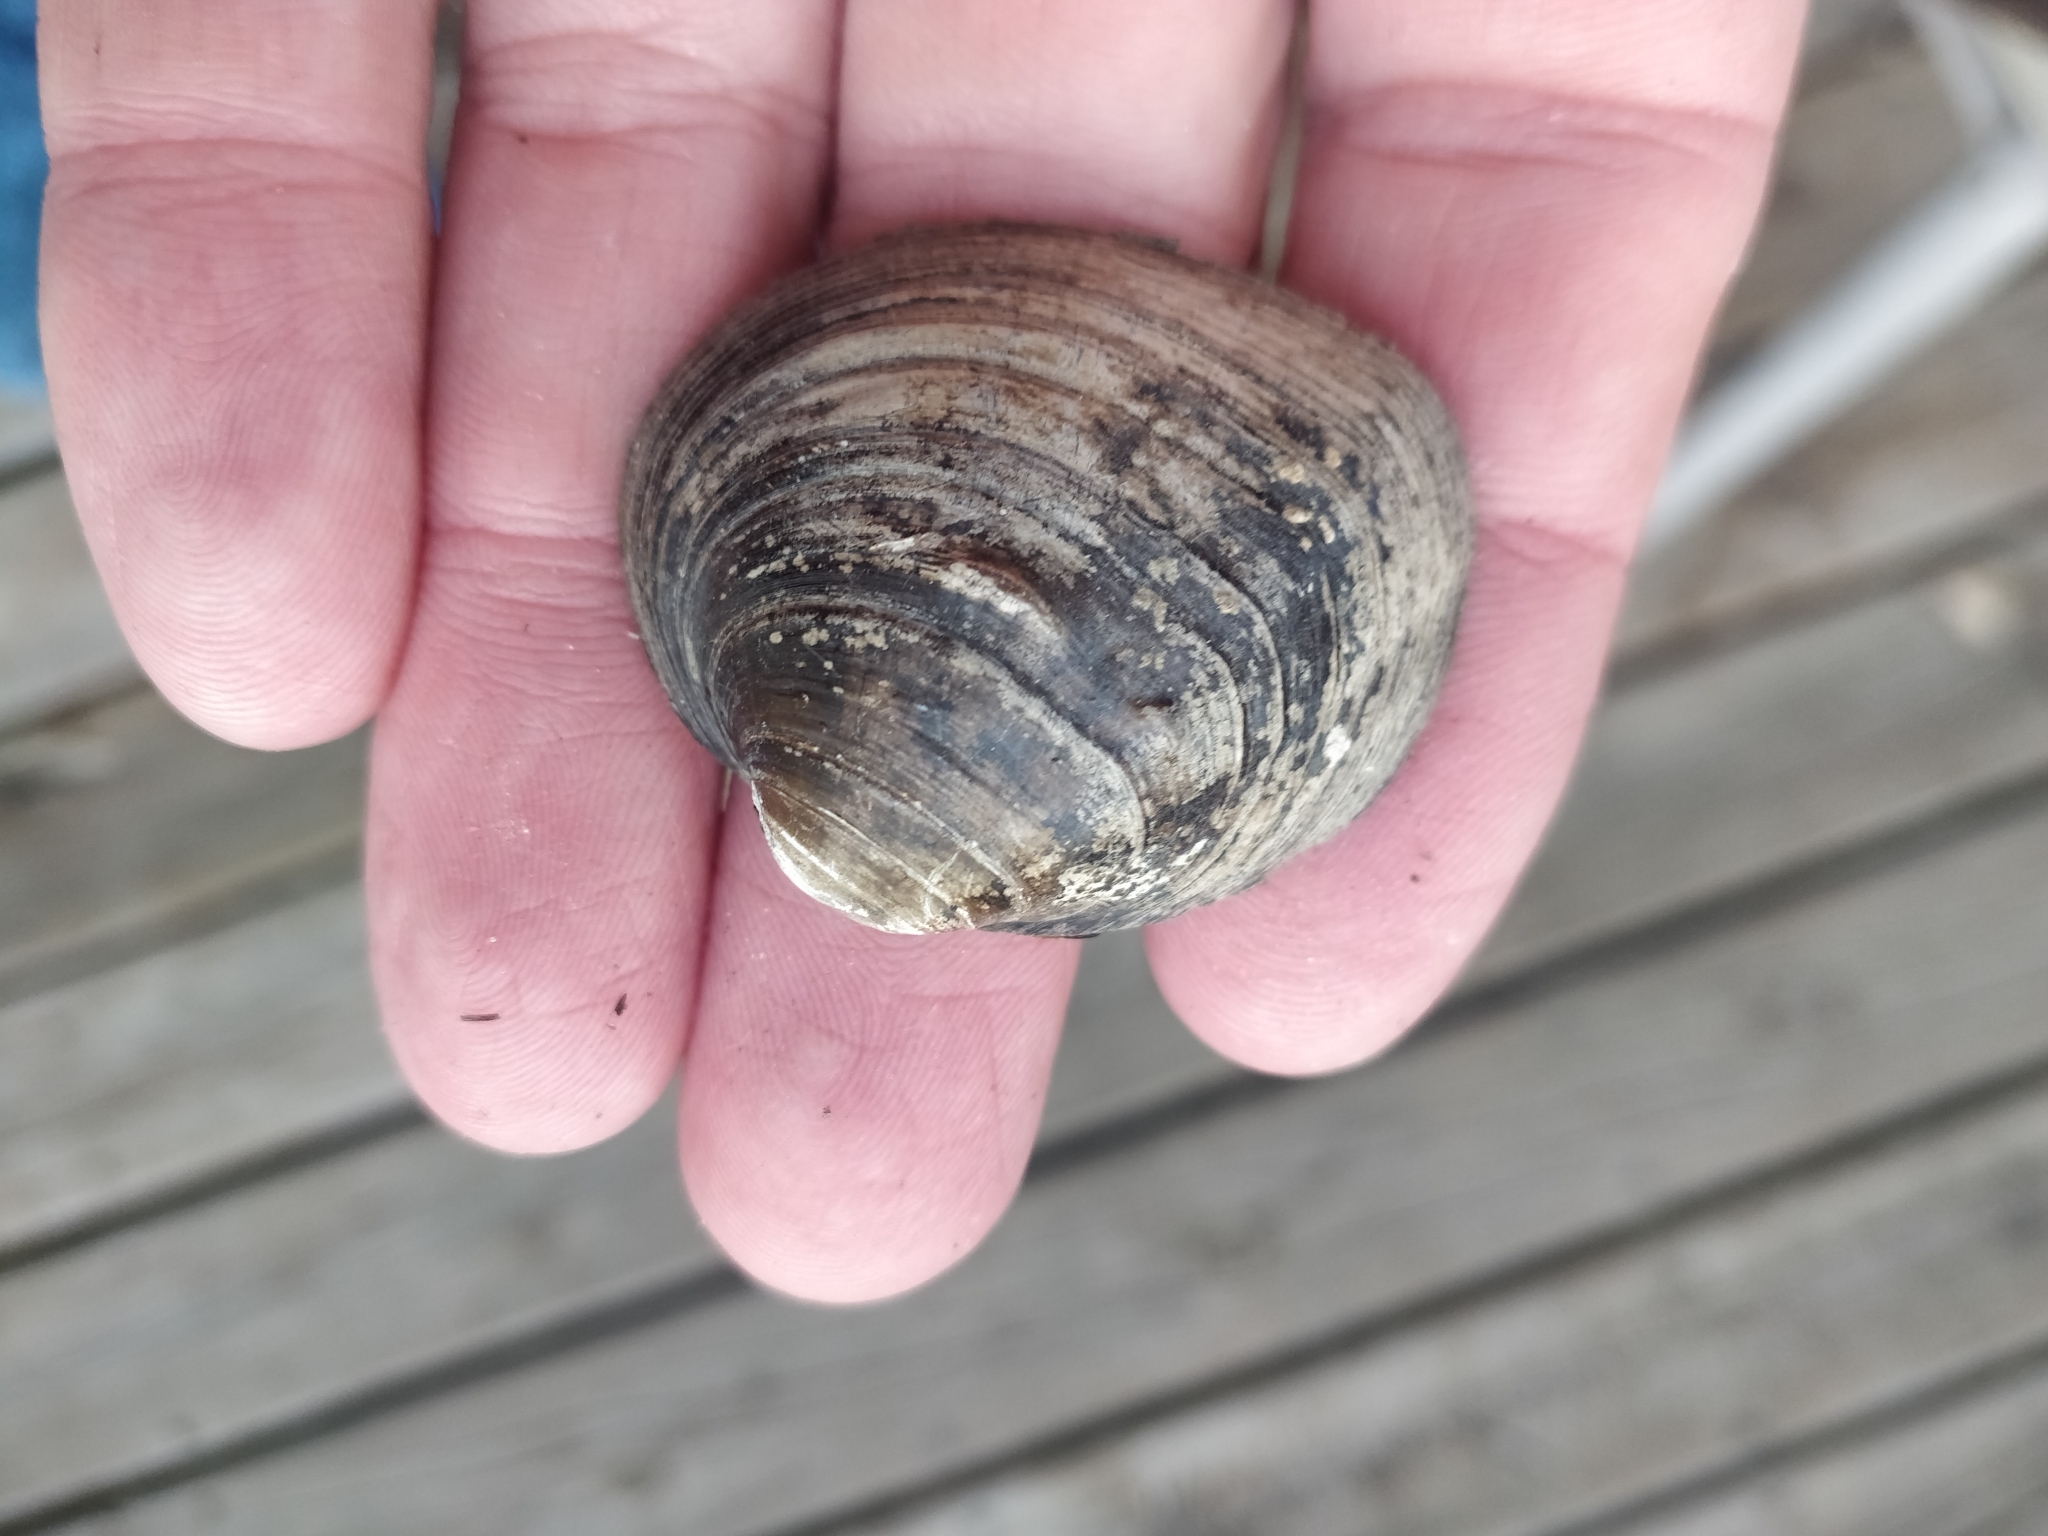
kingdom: Animalia
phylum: Mollusca
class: Bivalvia
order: Unionida
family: Unionidae
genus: Cyclonaias
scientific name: Cyclonaias pustulosa
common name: Pimpleback
